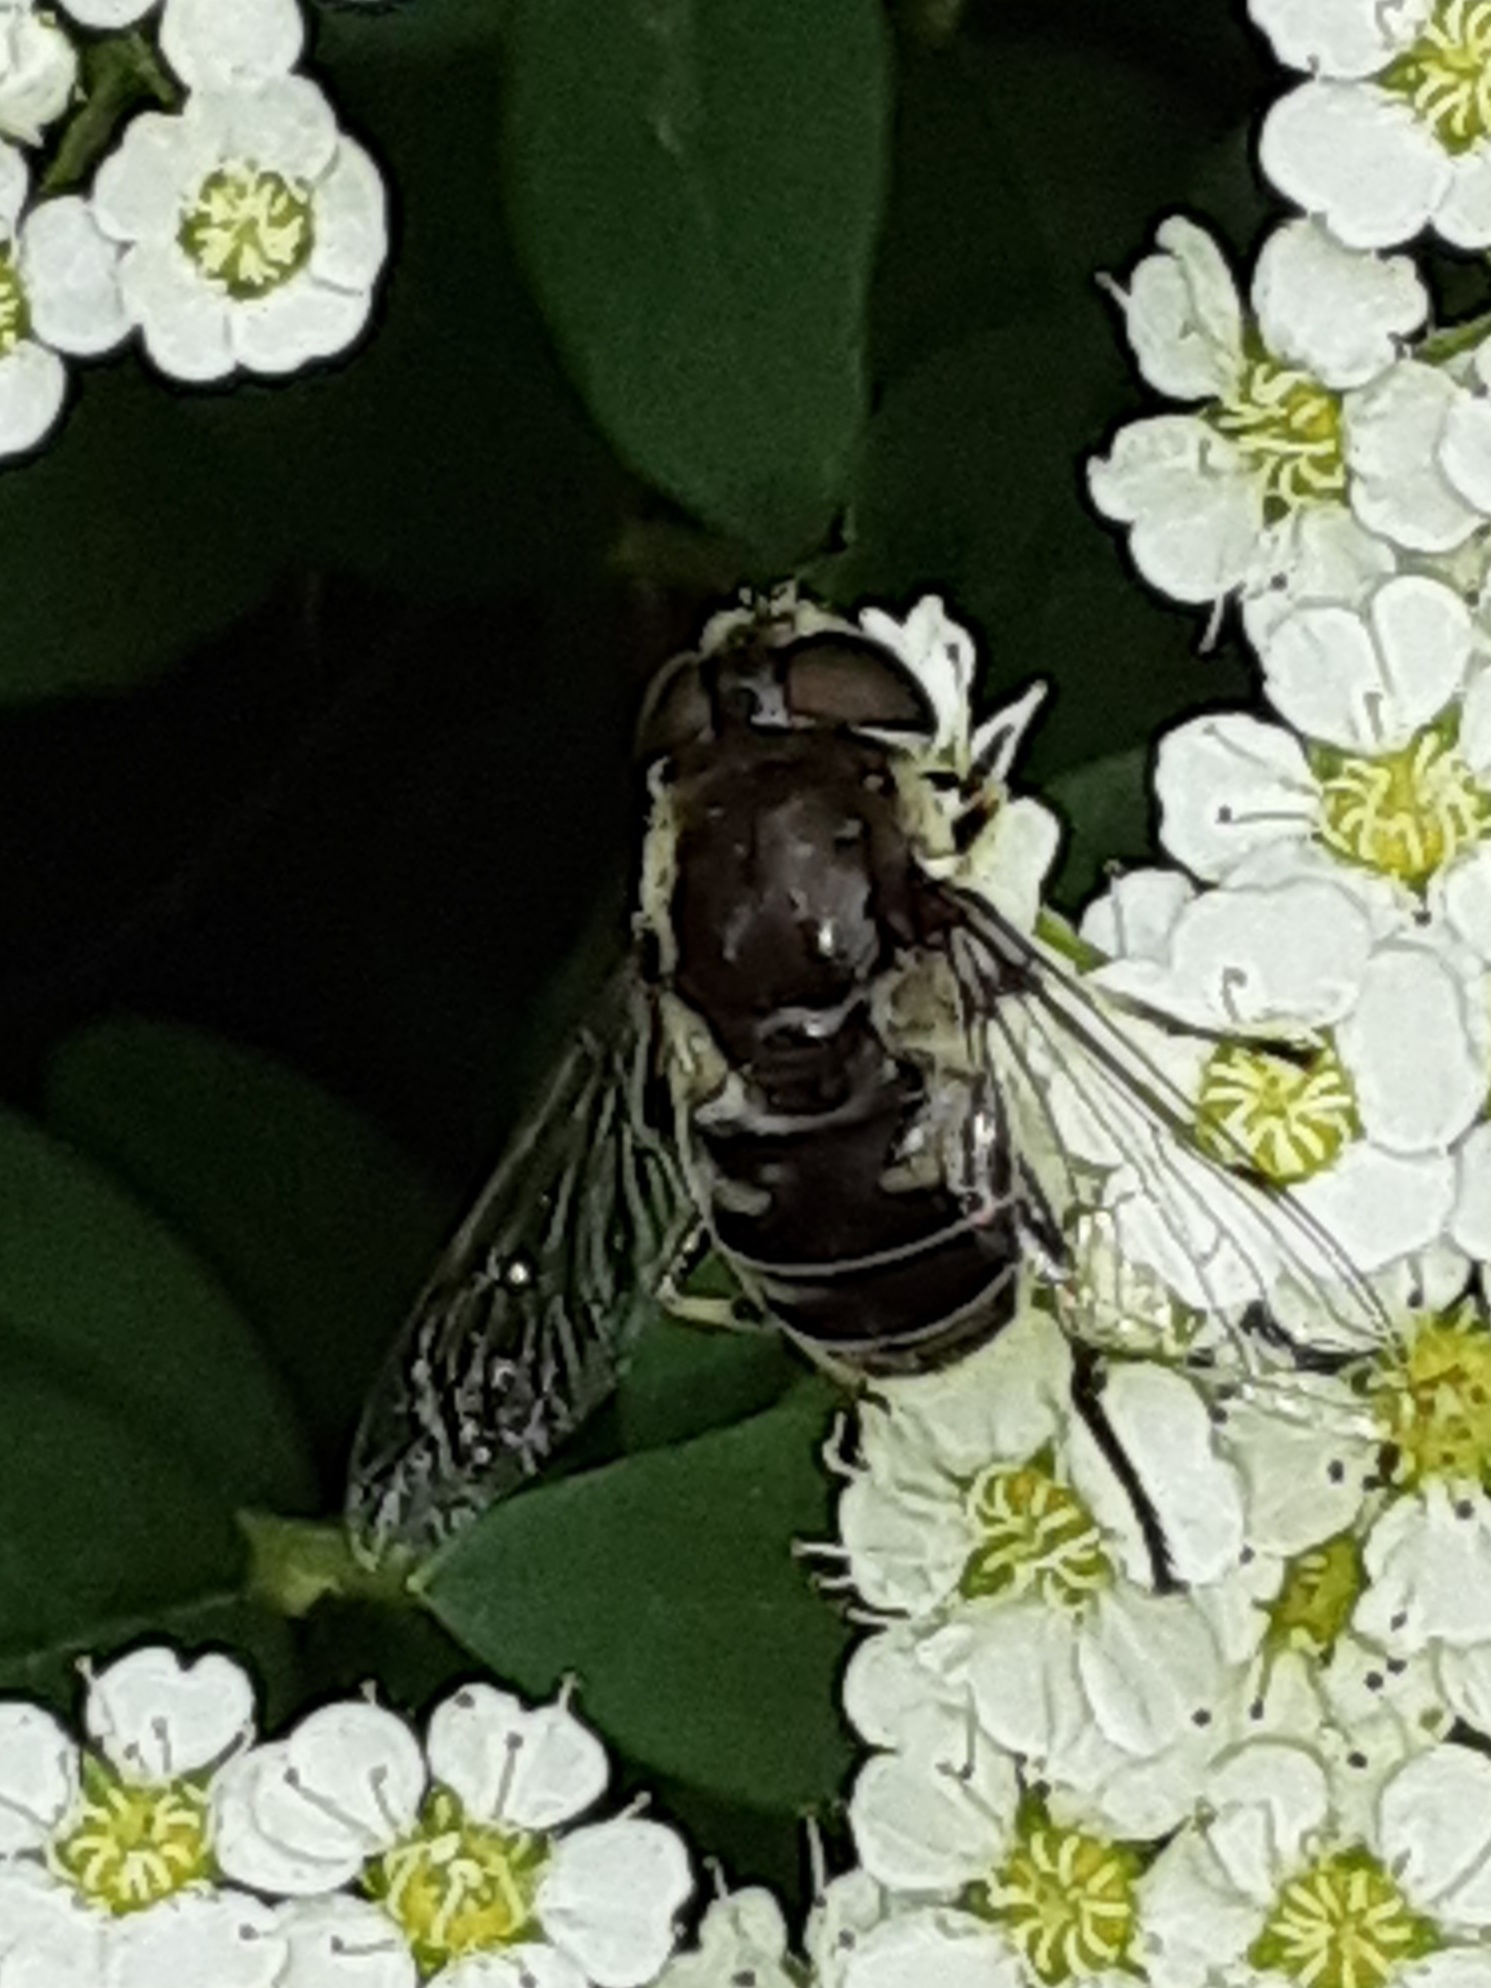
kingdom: Animalia
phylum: Arthropoda
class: Insecta
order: Diptera
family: Syrphidae
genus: Eristalis
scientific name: Eristalis dimidiata
